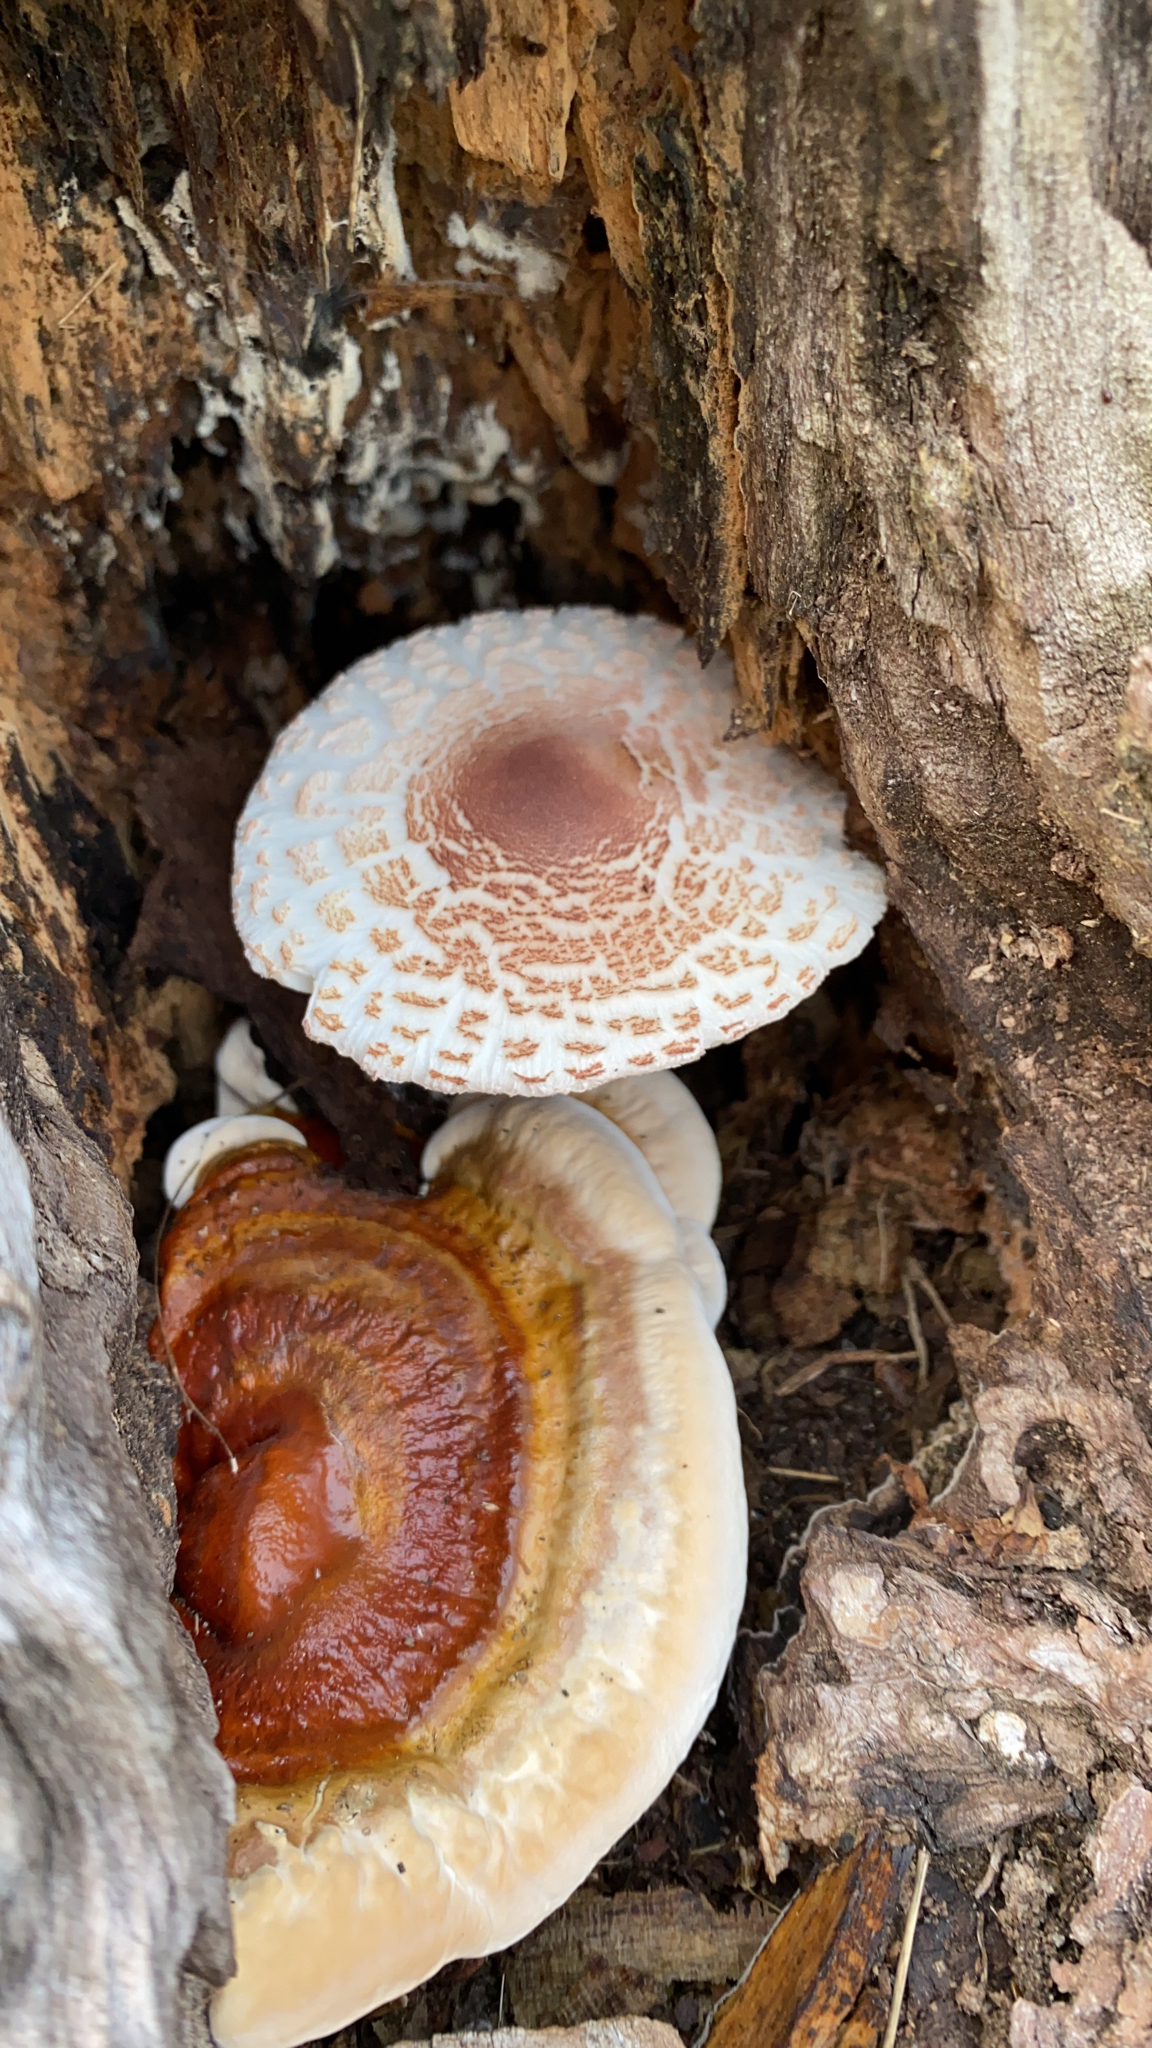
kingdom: Fungi
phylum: Basidiomycota
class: Agaricomycetes
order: Agaricales
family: Agaricaceae
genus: Leucoagaricus
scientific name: Leucoagaricus americanus
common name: Reddening lepiota
